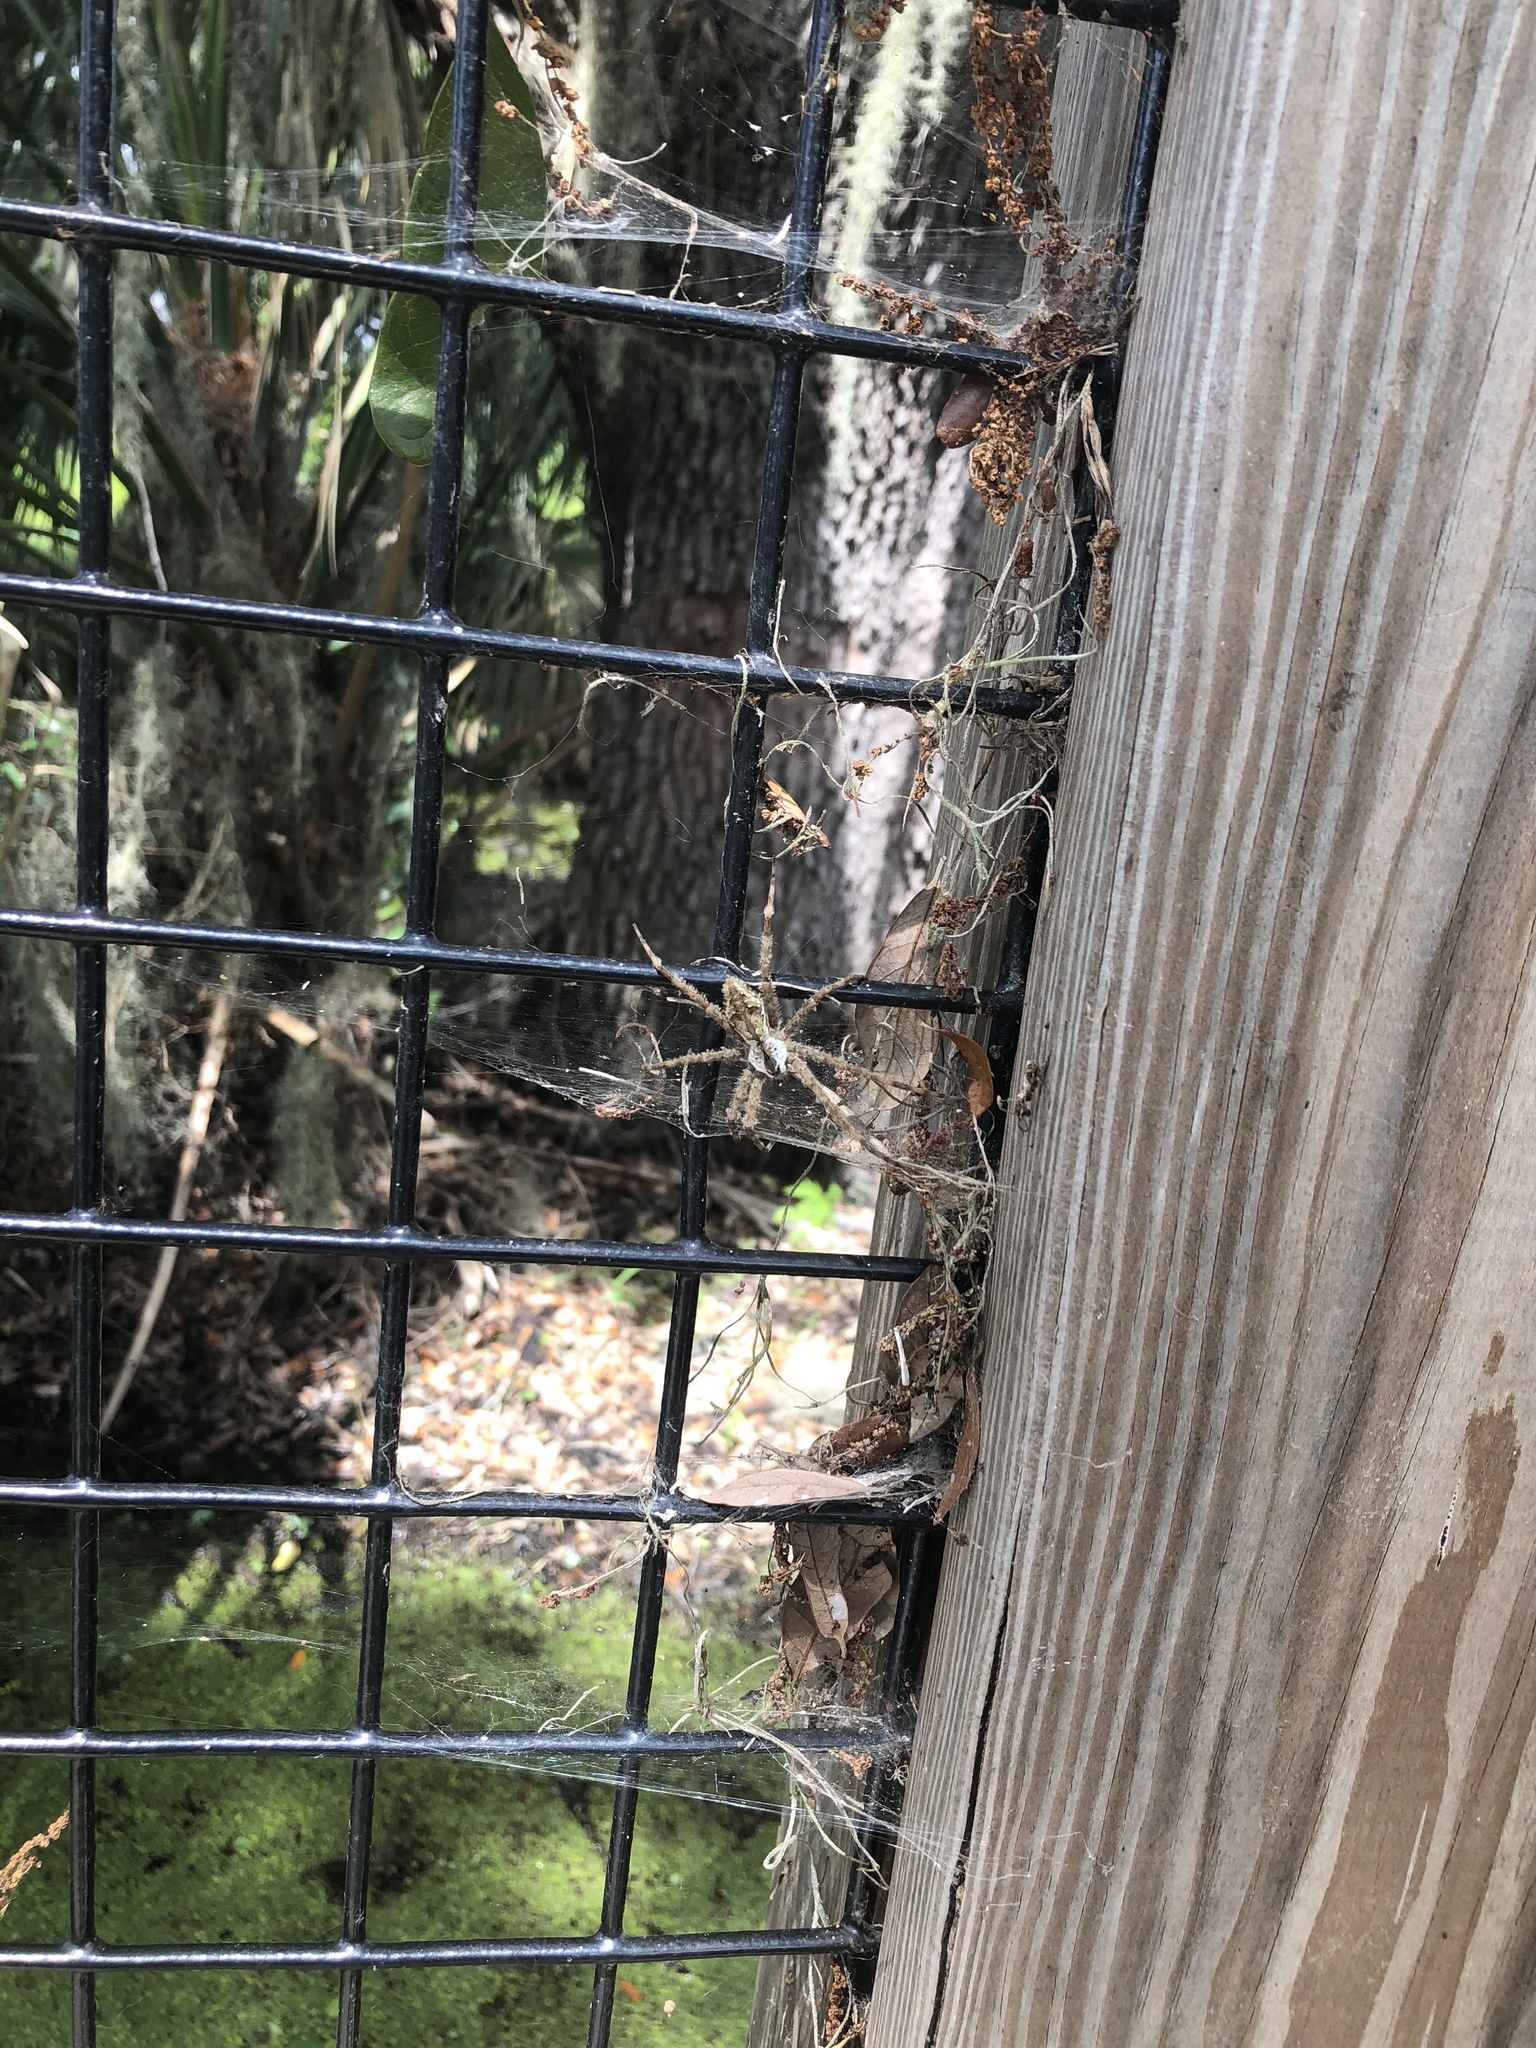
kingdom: Animalia
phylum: Arthropoda
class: Arachnida
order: Araneae
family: Pisauridae
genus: Dolomedes
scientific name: Dolomedes albineus
